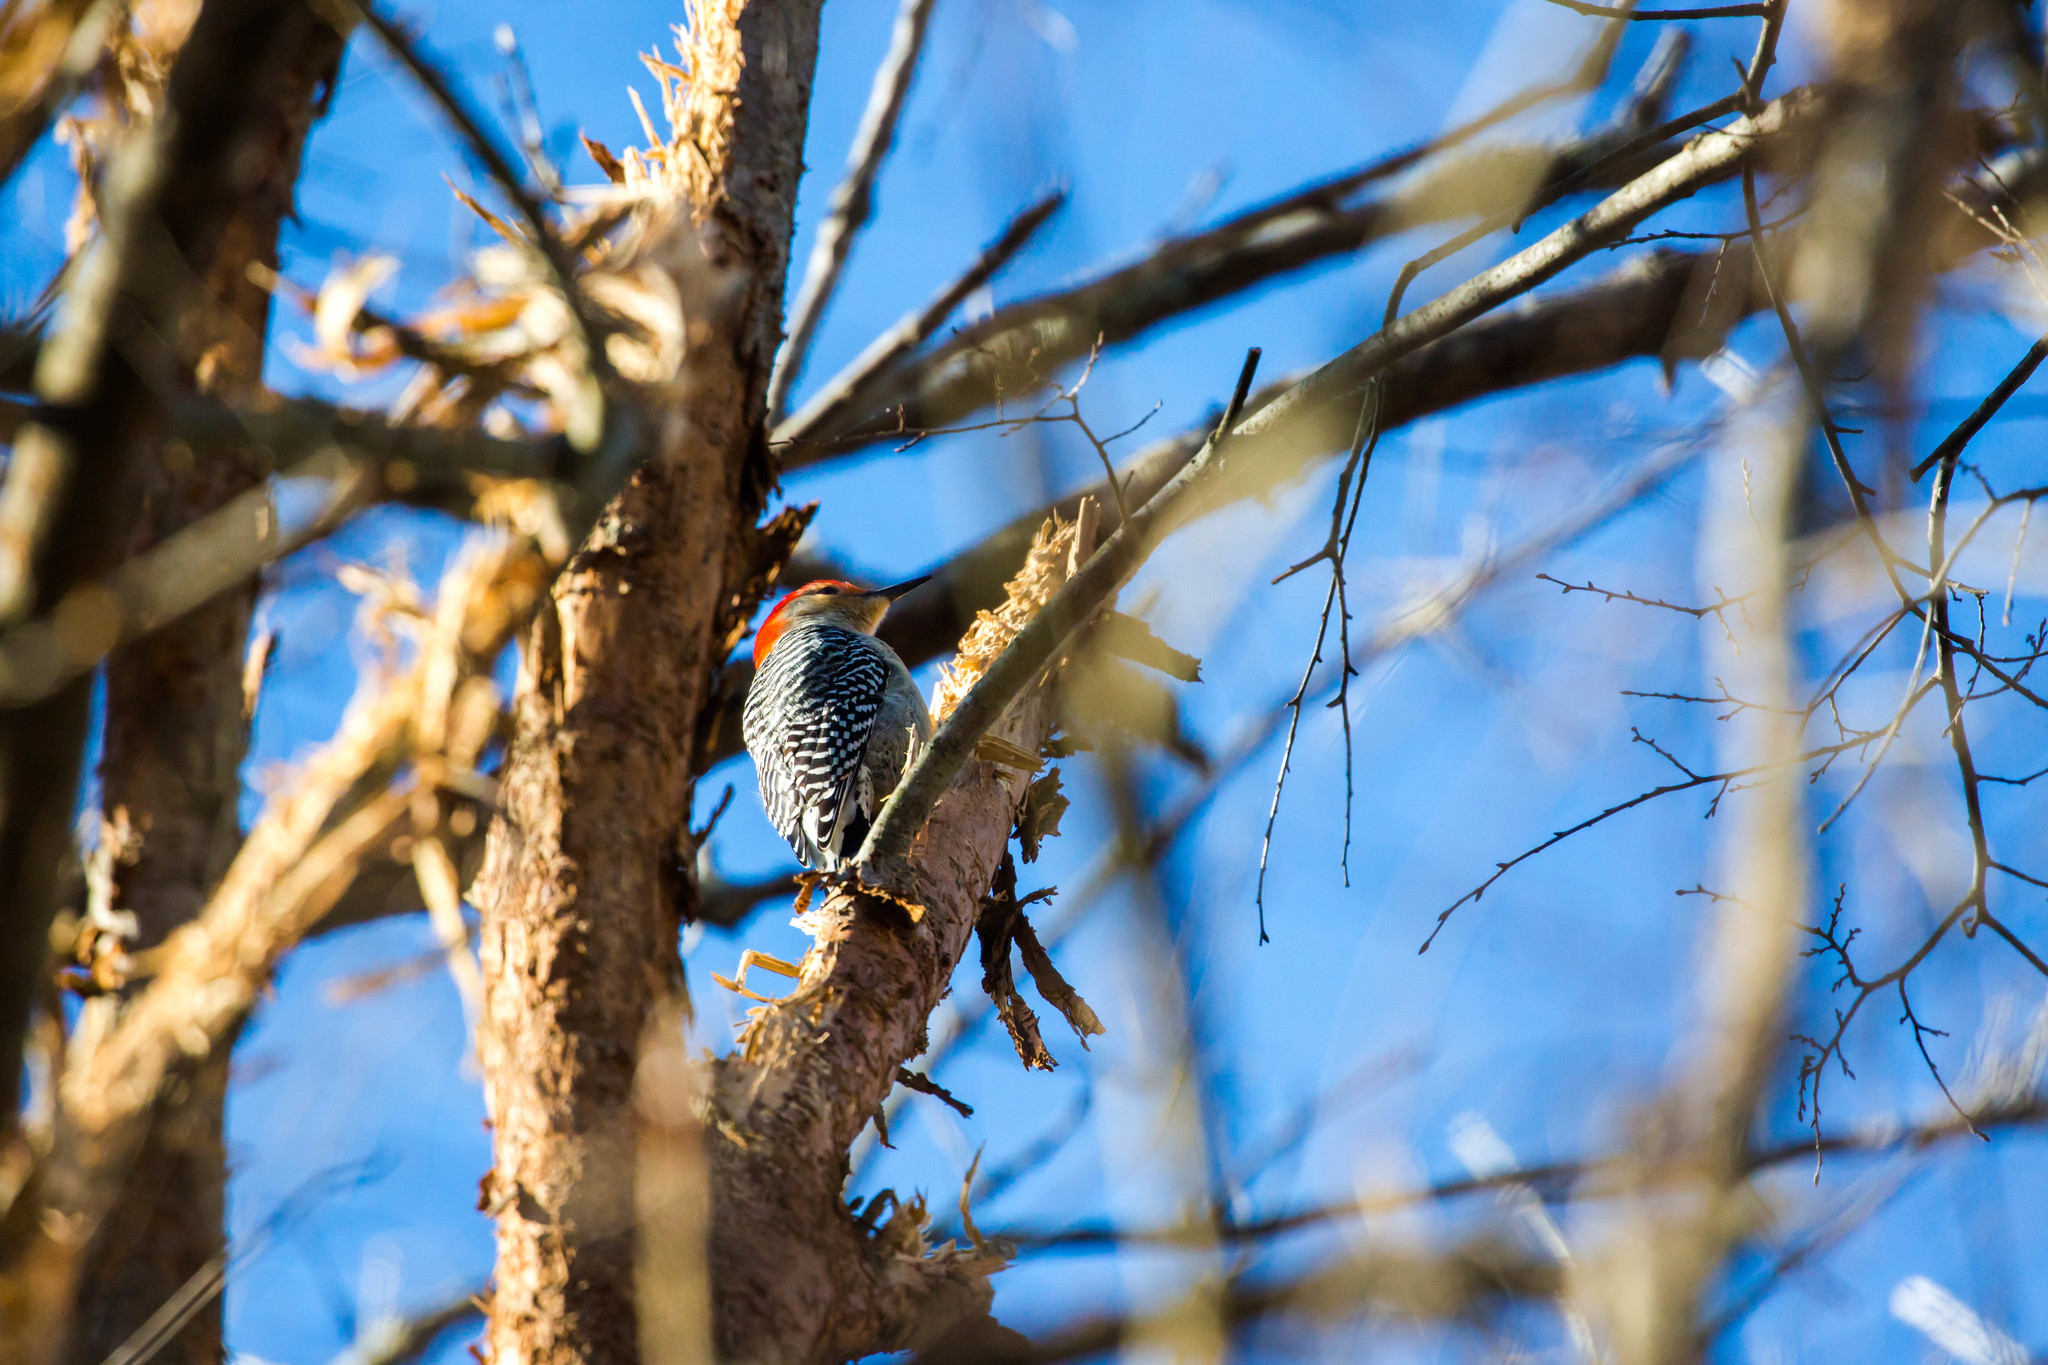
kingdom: Animalia
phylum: Chordata
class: Aves
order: Piciformes
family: Picidae
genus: Melanerpes
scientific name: Melanerpes carolinus
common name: Red-bellied woodpecker
